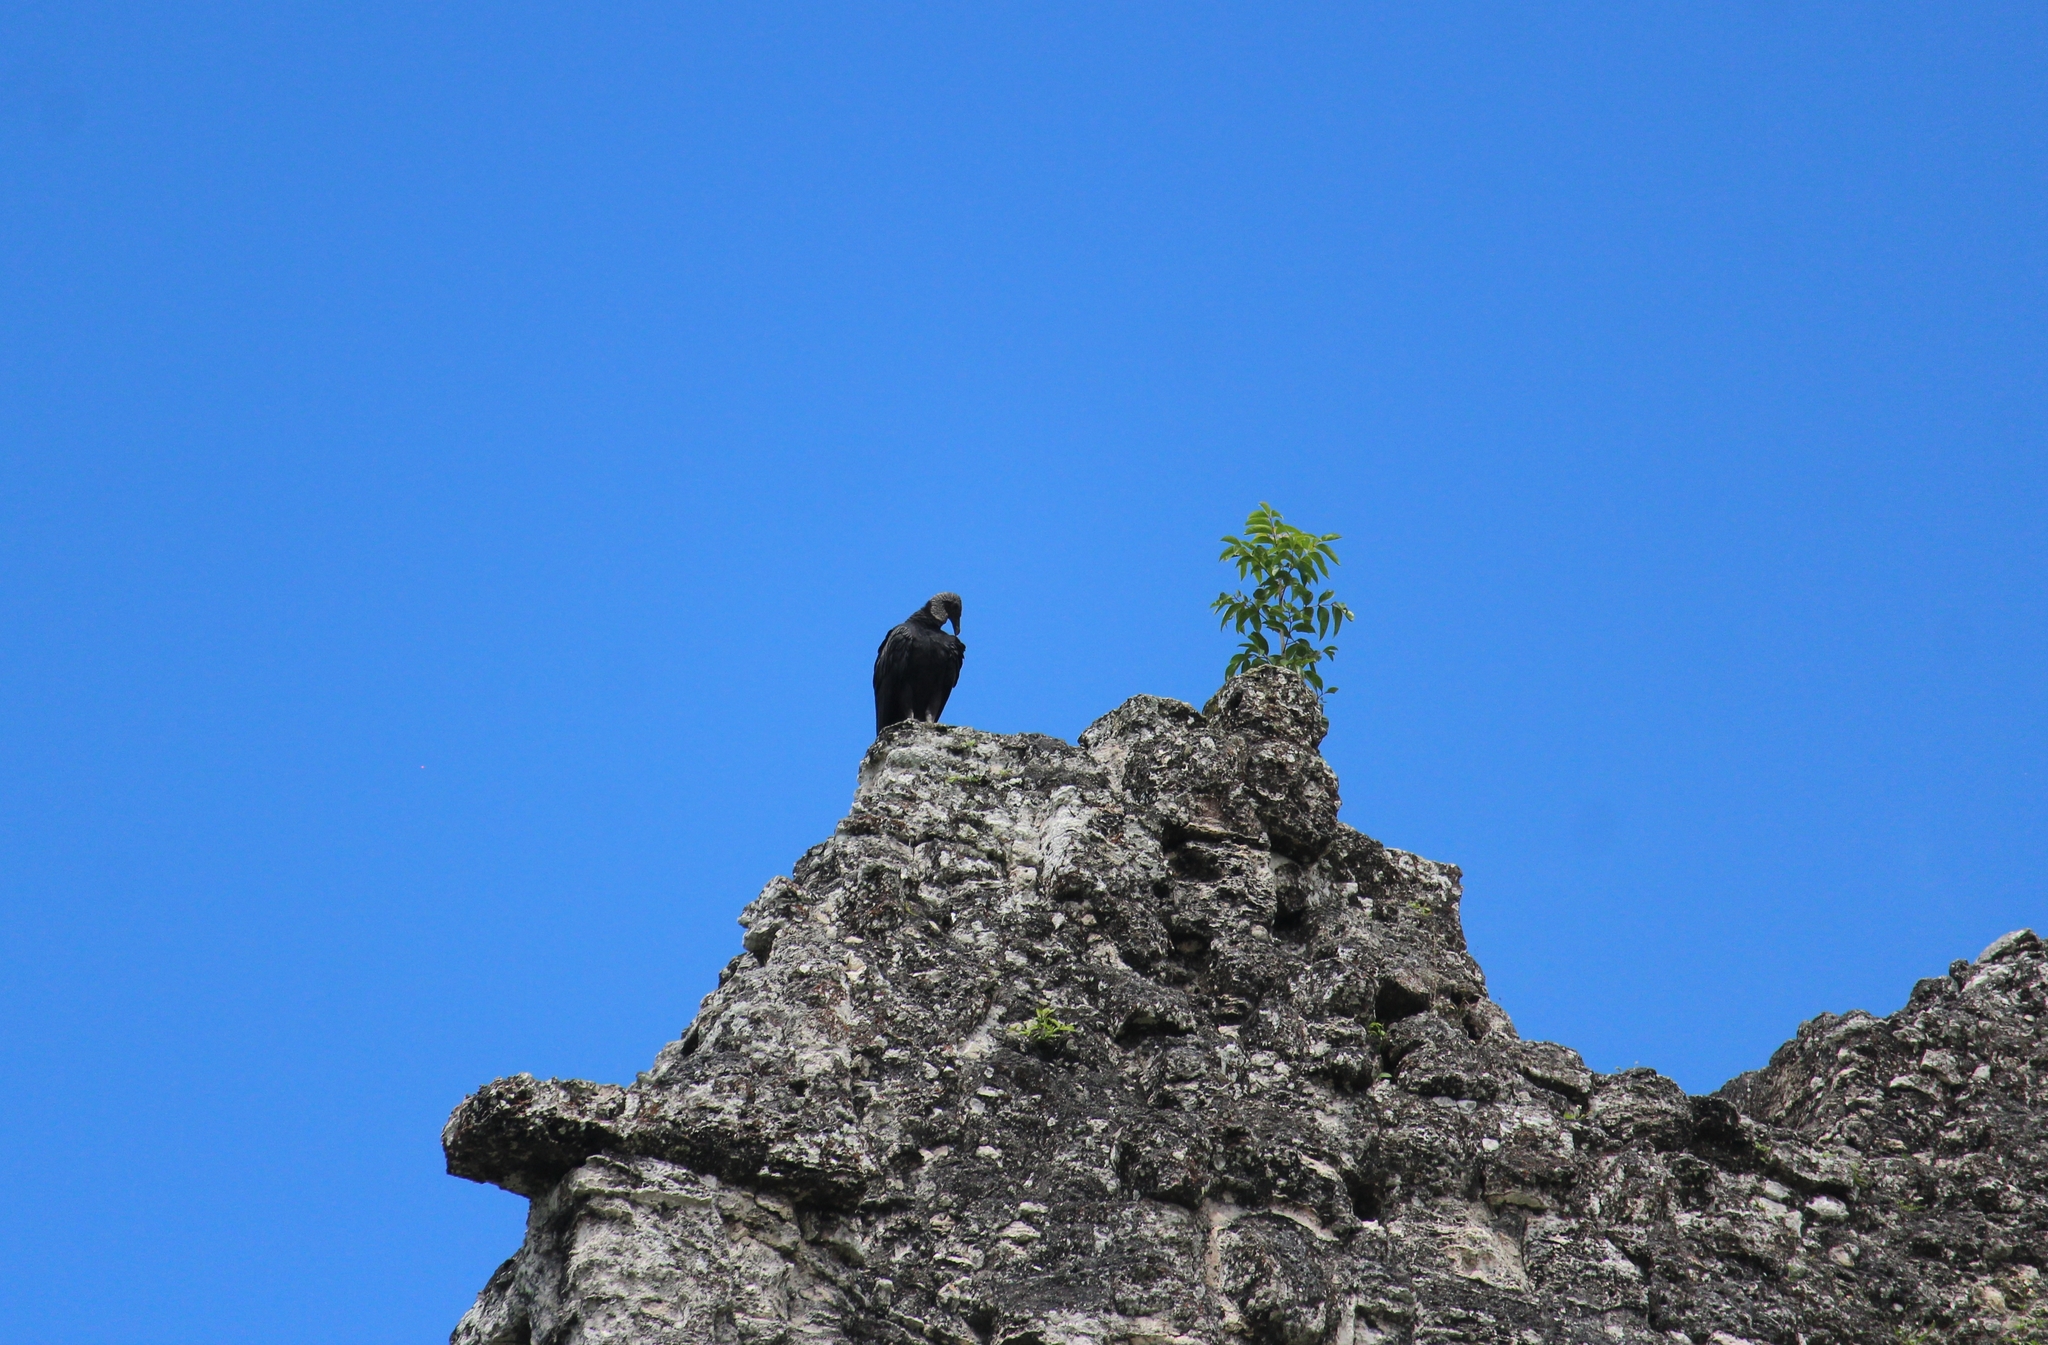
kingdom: Animalia
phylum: Chordata
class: Aves
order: Accipitriformes
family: Cathartidae
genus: Coragyps
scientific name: Coragyps atratus
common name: Black vulture
